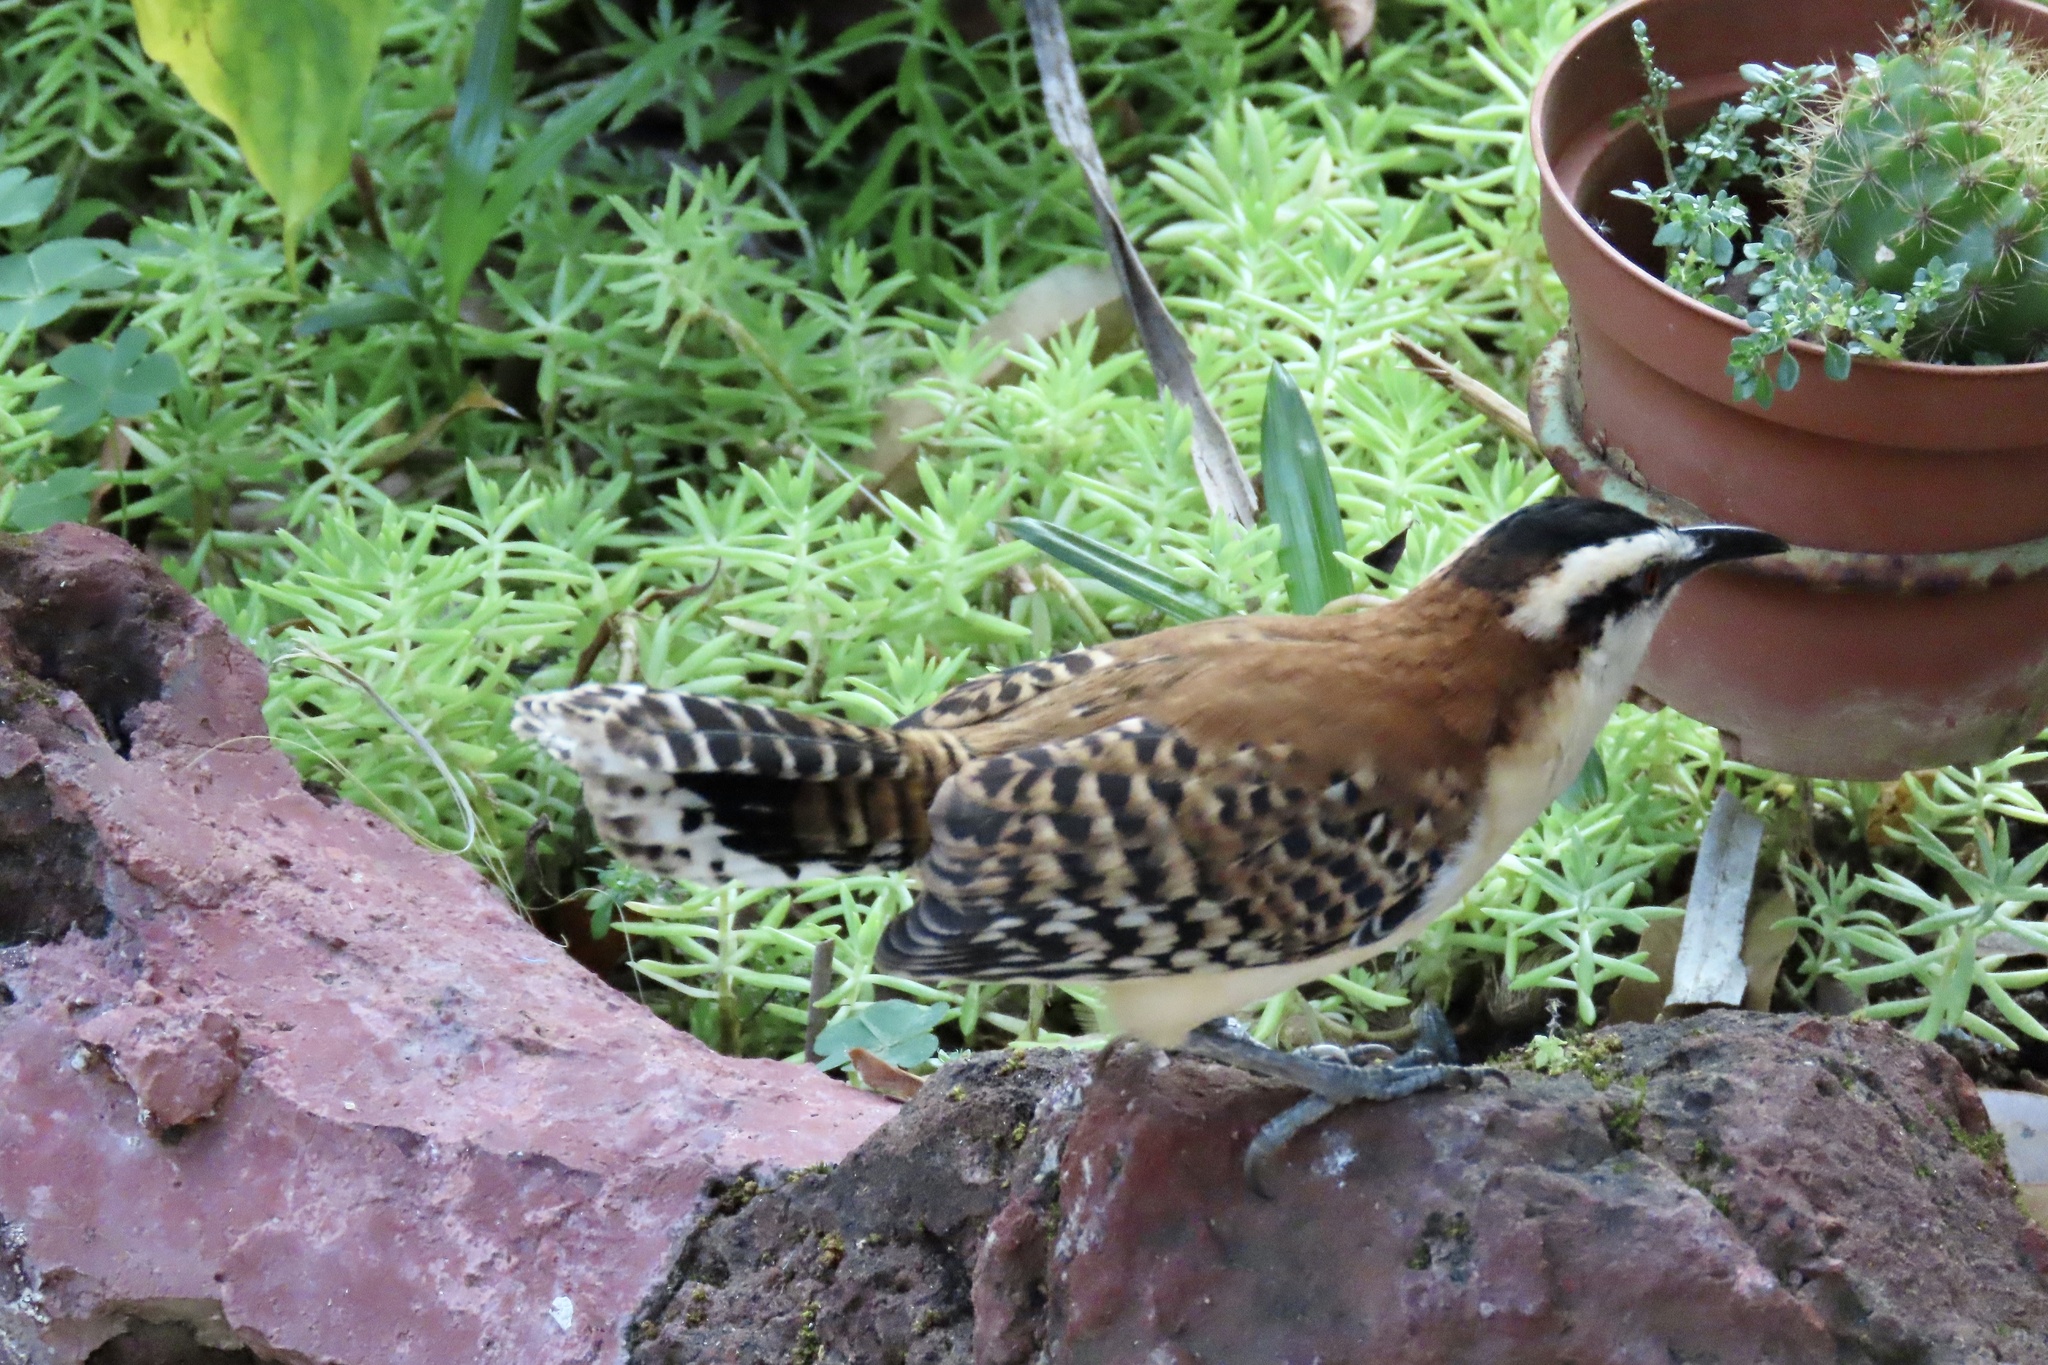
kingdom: Animalia
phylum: Chordata
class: Aves
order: Passeriformes
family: Troglodytidae
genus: Campylorhynchus
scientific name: Campylorhynchus rufinucha
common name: Rufous-naped wren
